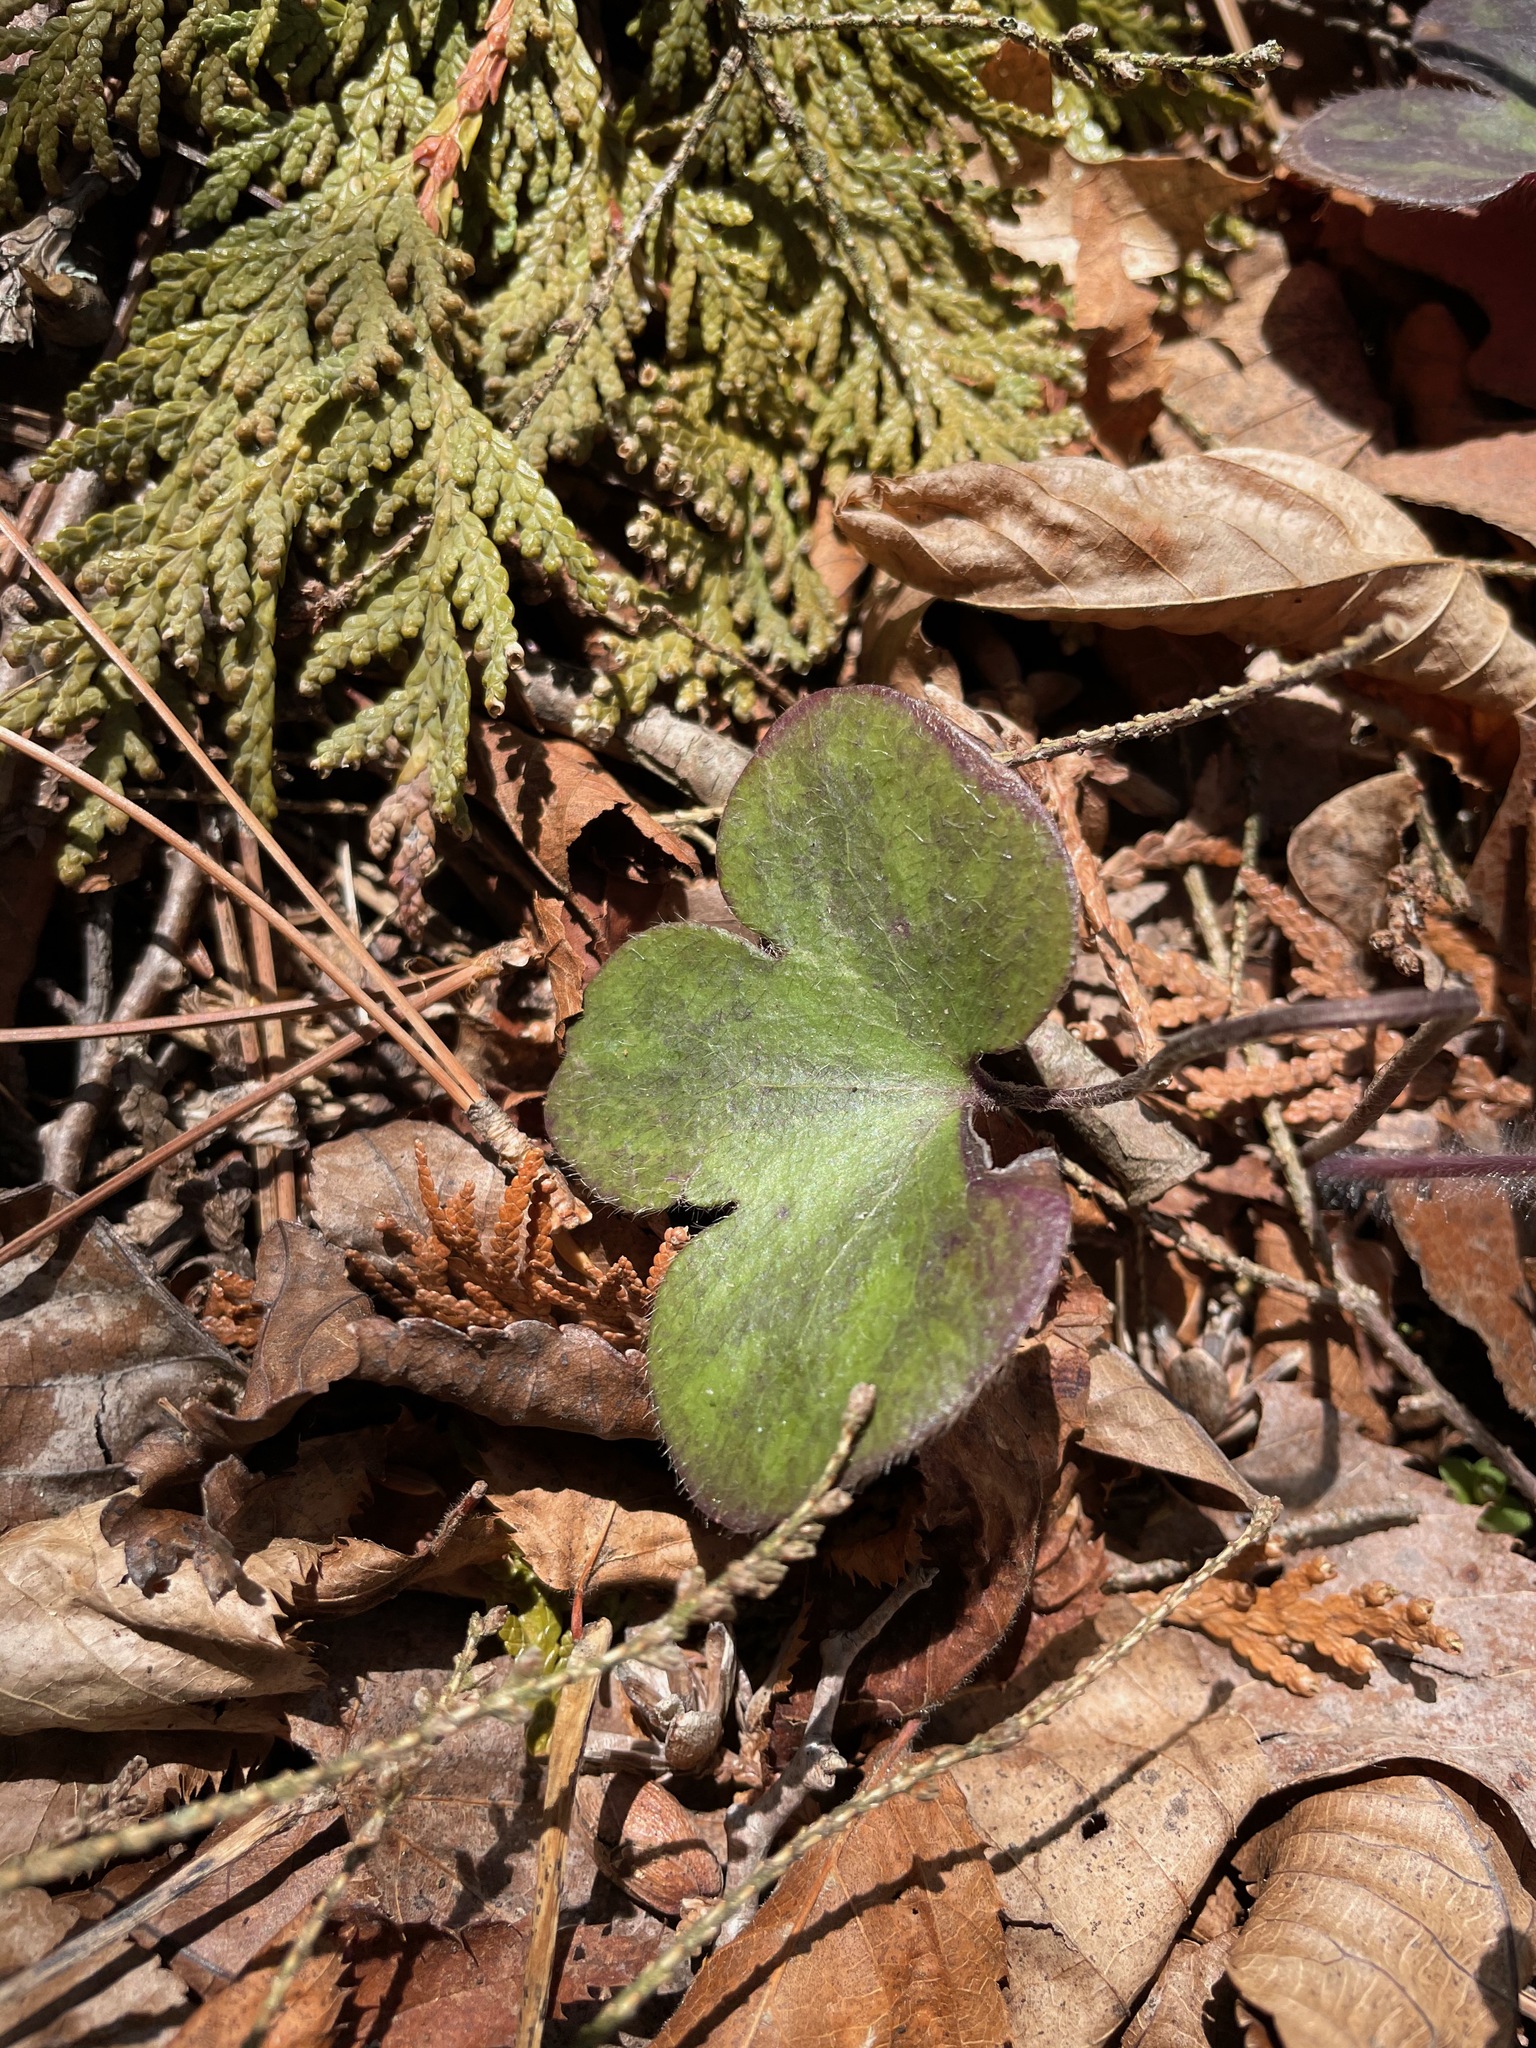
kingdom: Plantae
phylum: Tracheophyta
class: Magnoliopsida
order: Ranunculales
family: Ranunculaceae
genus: Hepatica
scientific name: Hepatica americana
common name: American hepatica
